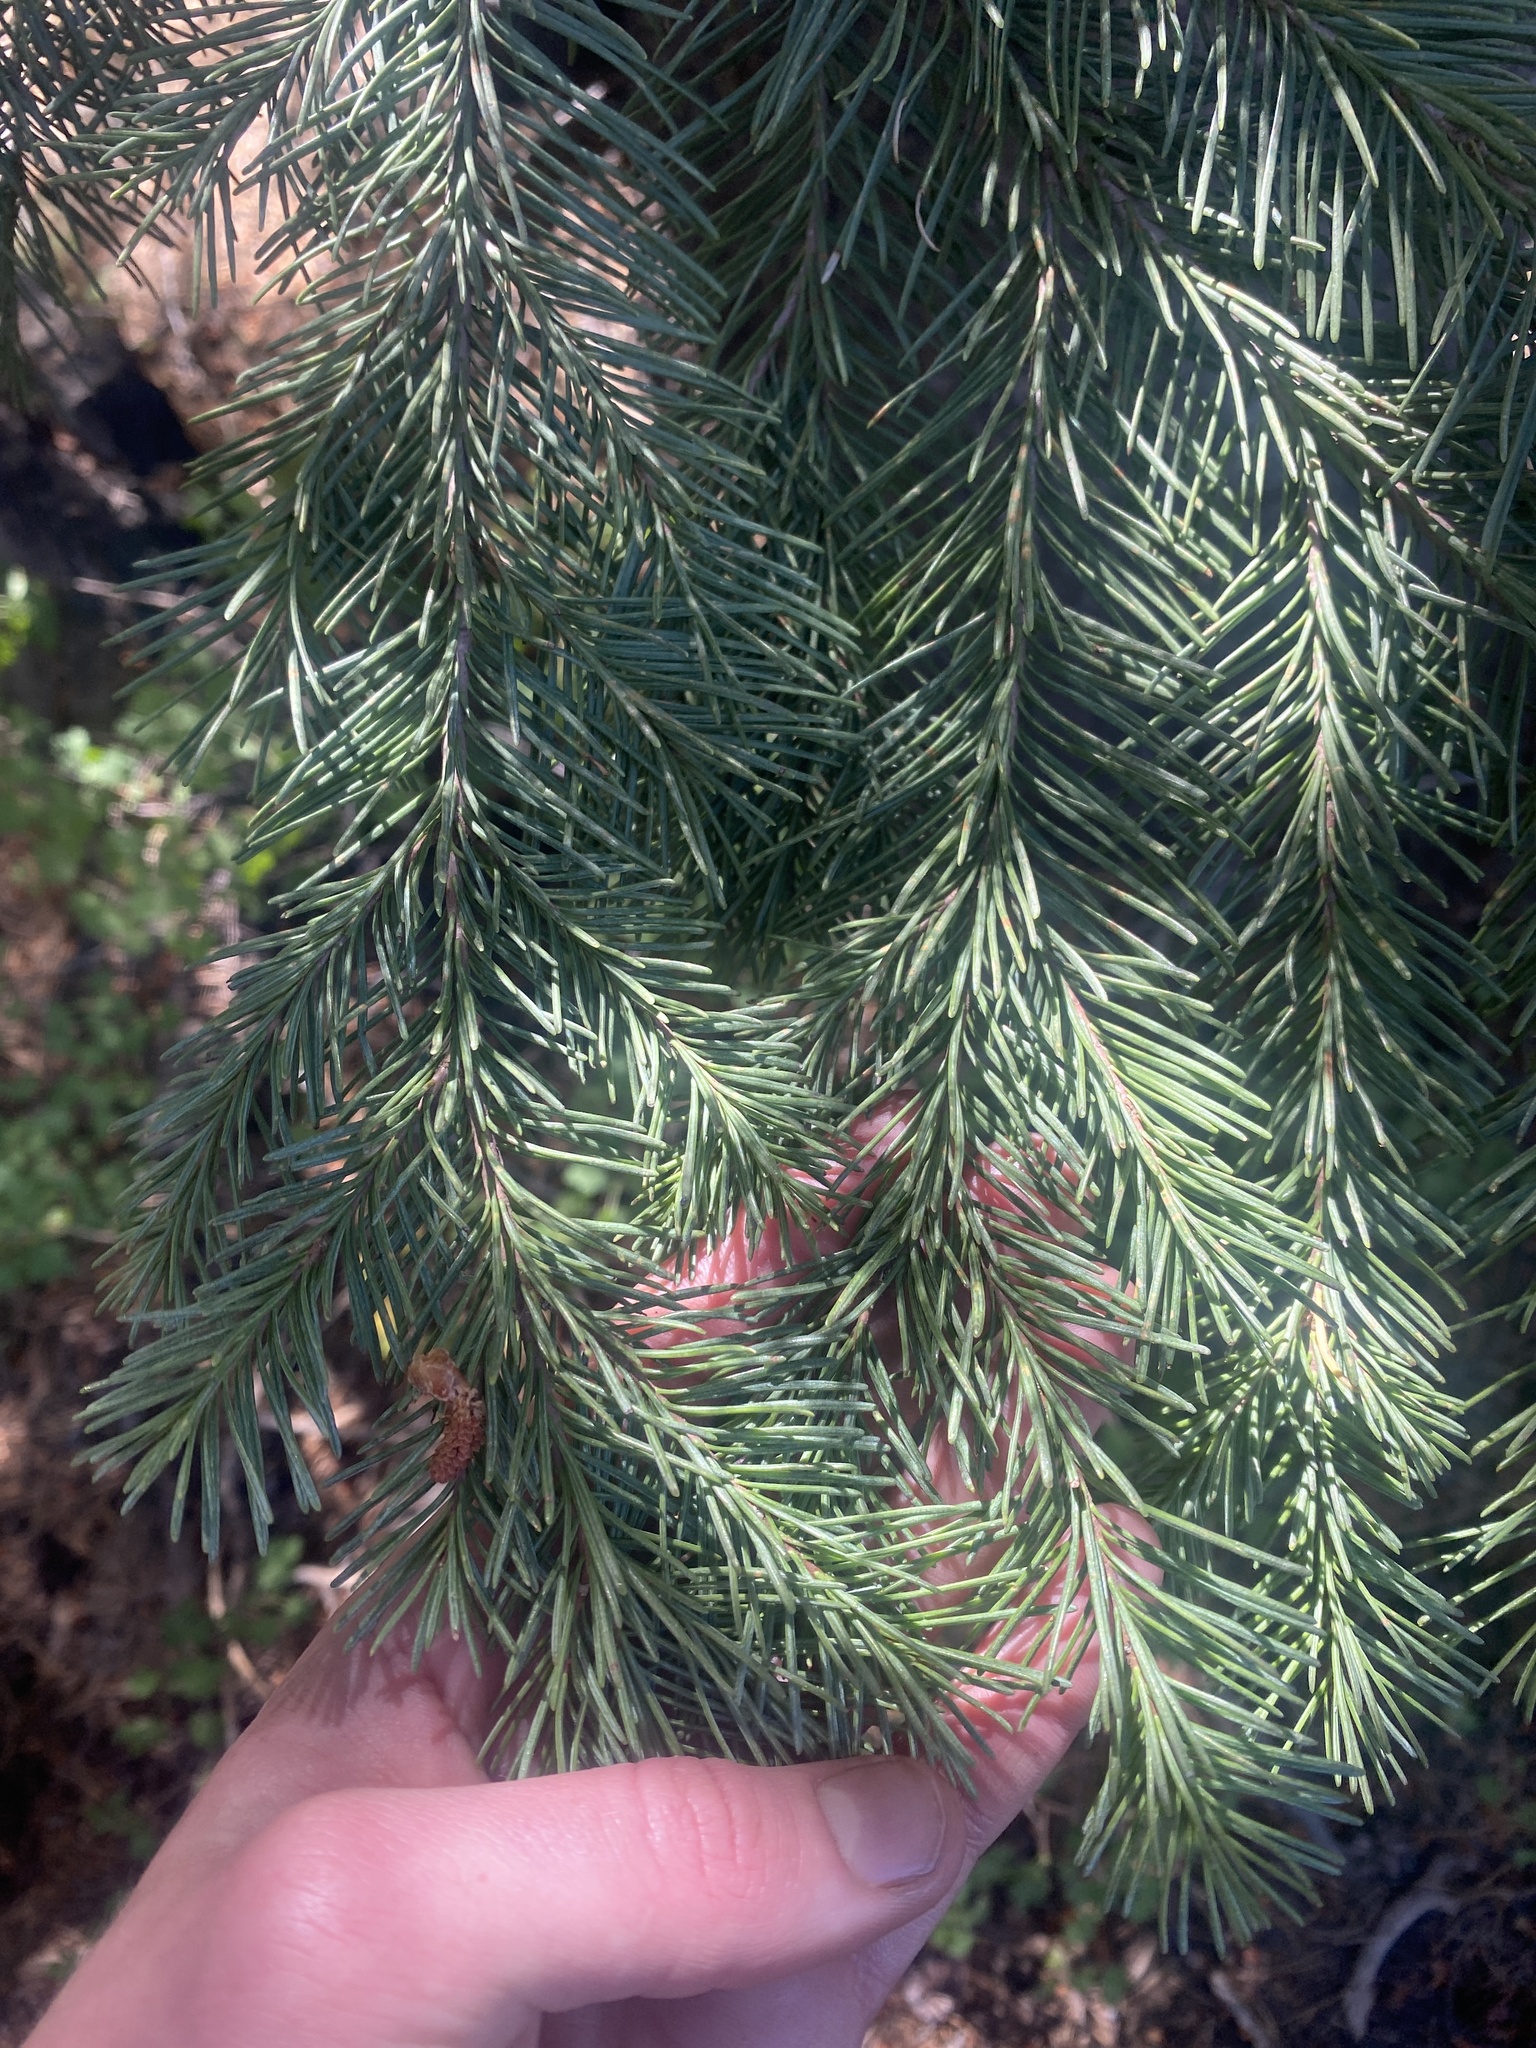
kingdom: Plantae
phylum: Tracheophyta
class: Pinopsida
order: Pinales
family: Pinaceae
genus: Pseudotsuga
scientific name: Pseudotsuga menziesii
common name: Douglas fir
